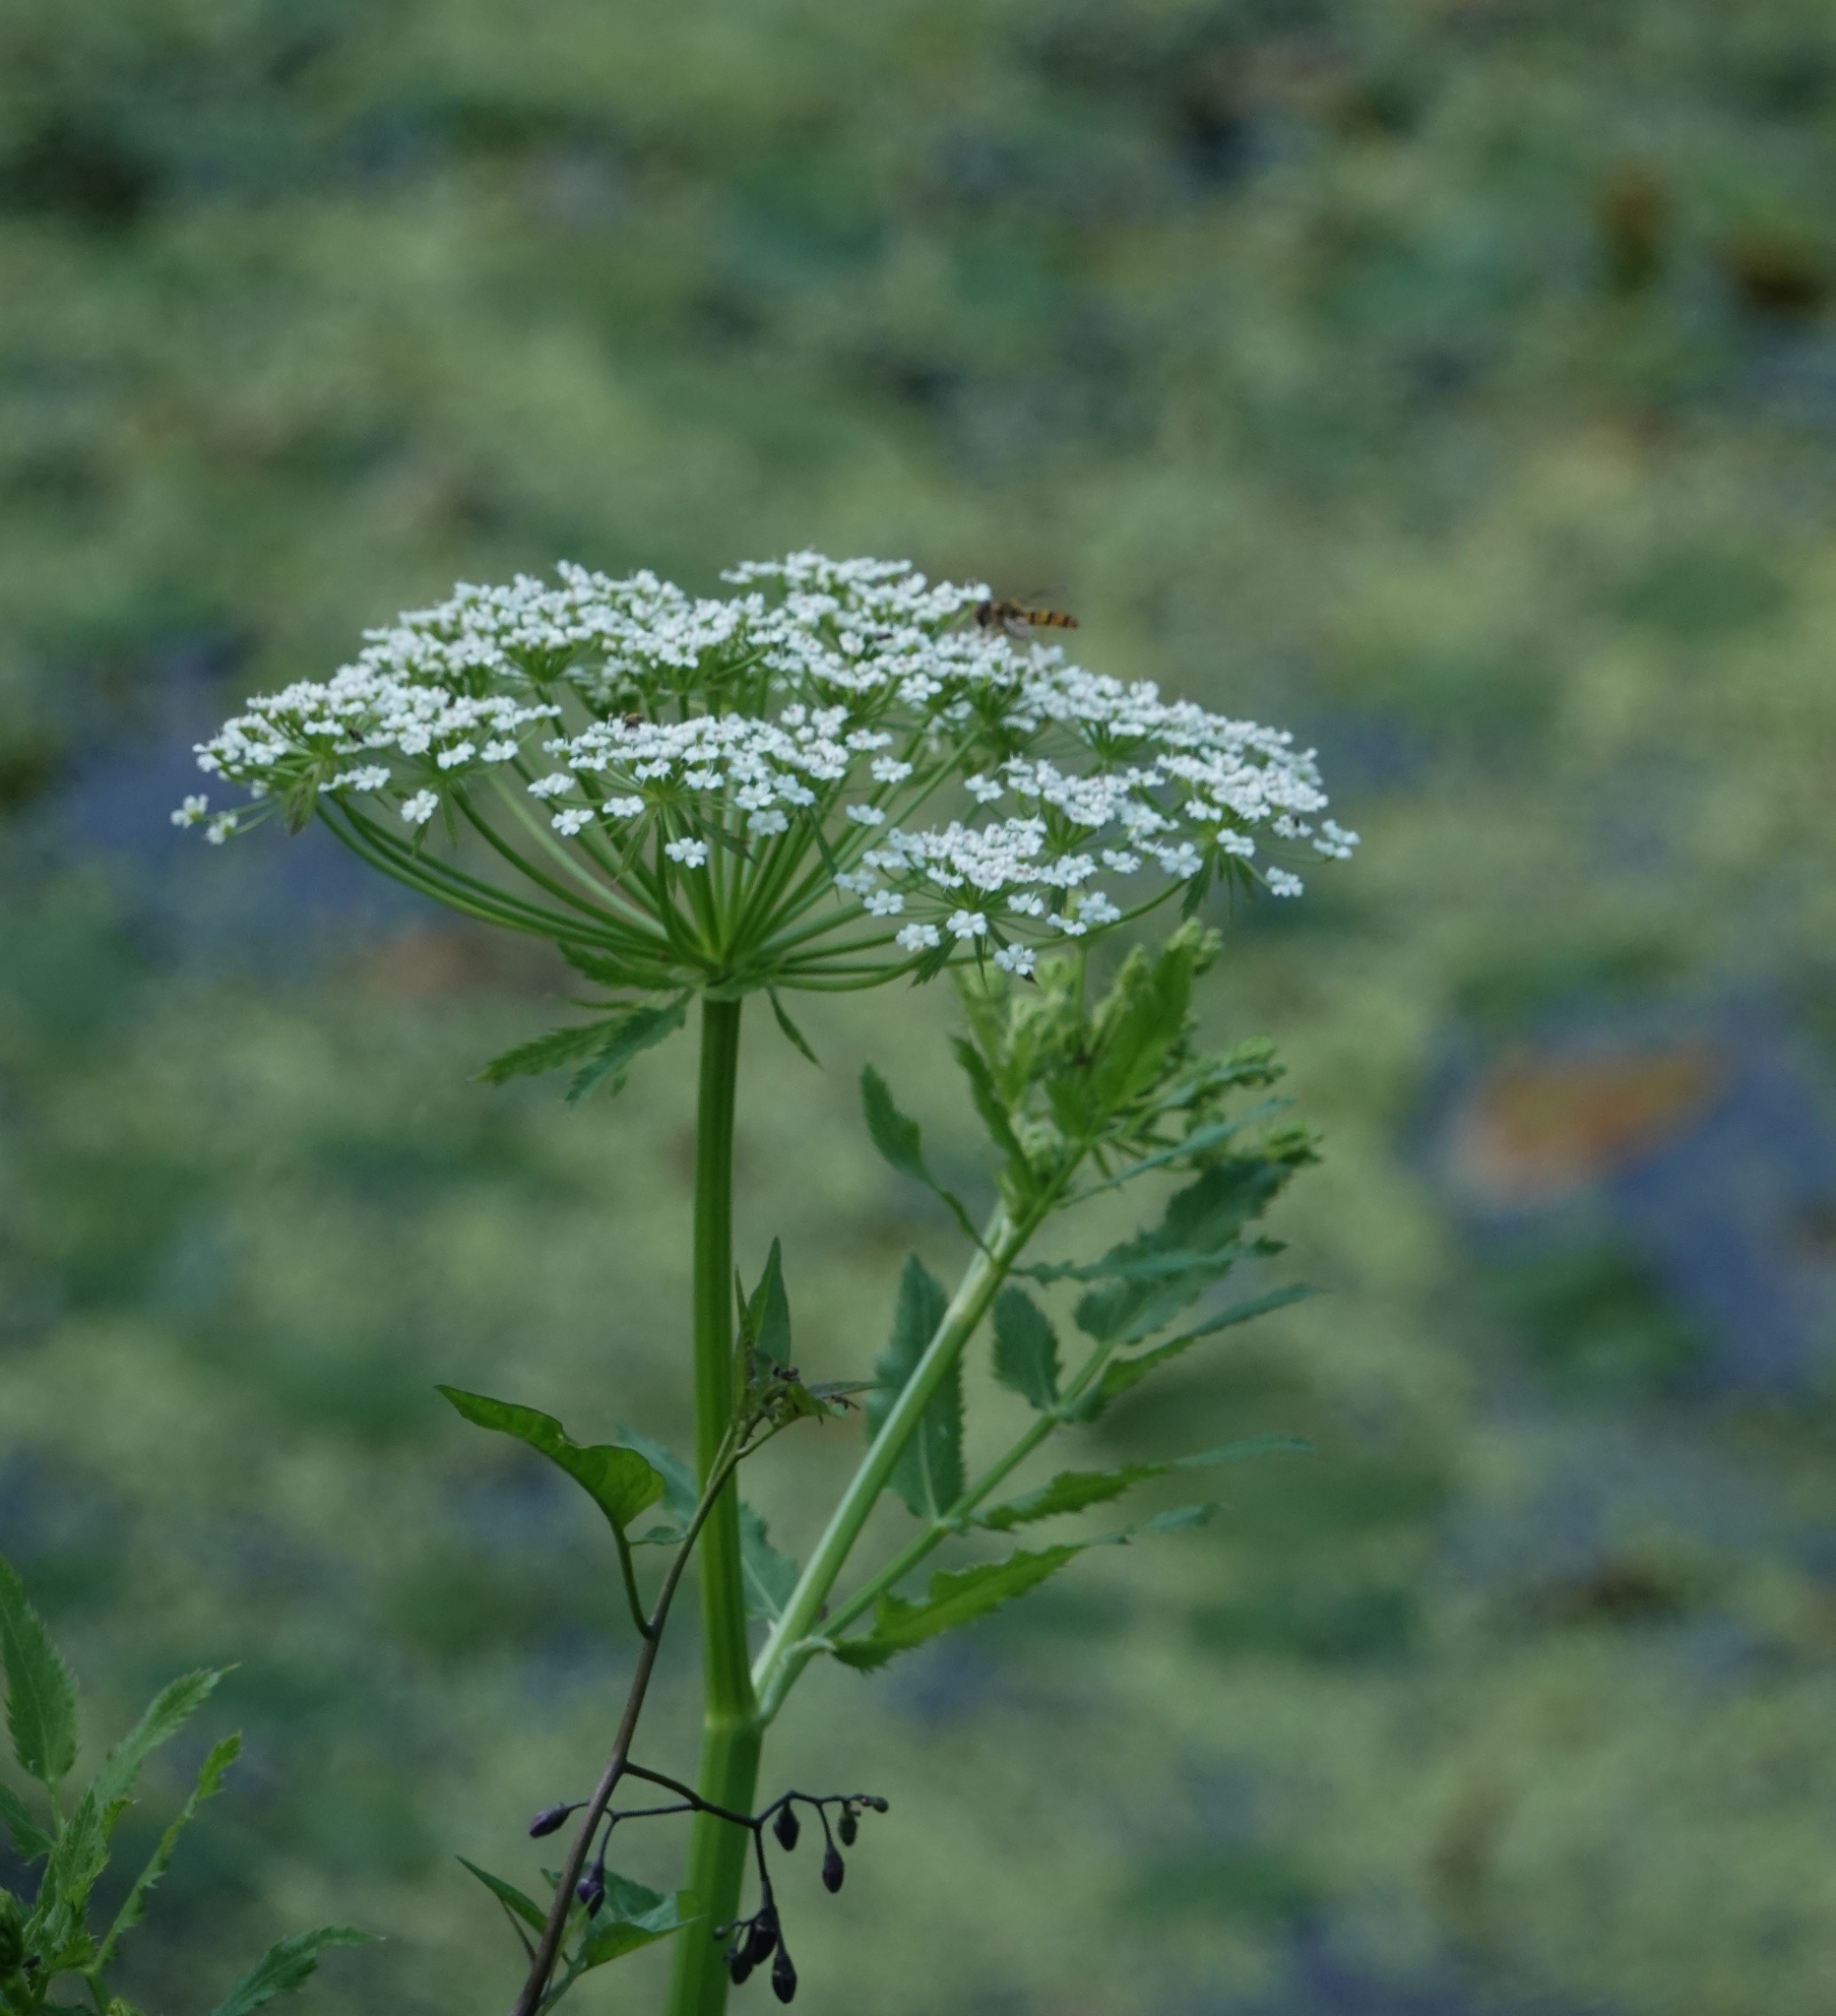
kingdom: Plantae
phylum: Tracheophyta
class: Magnoliopsida
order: Apiales
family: Apiaceae
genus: Sium
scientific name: Sium latifolium
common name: Greater water-parsnip
